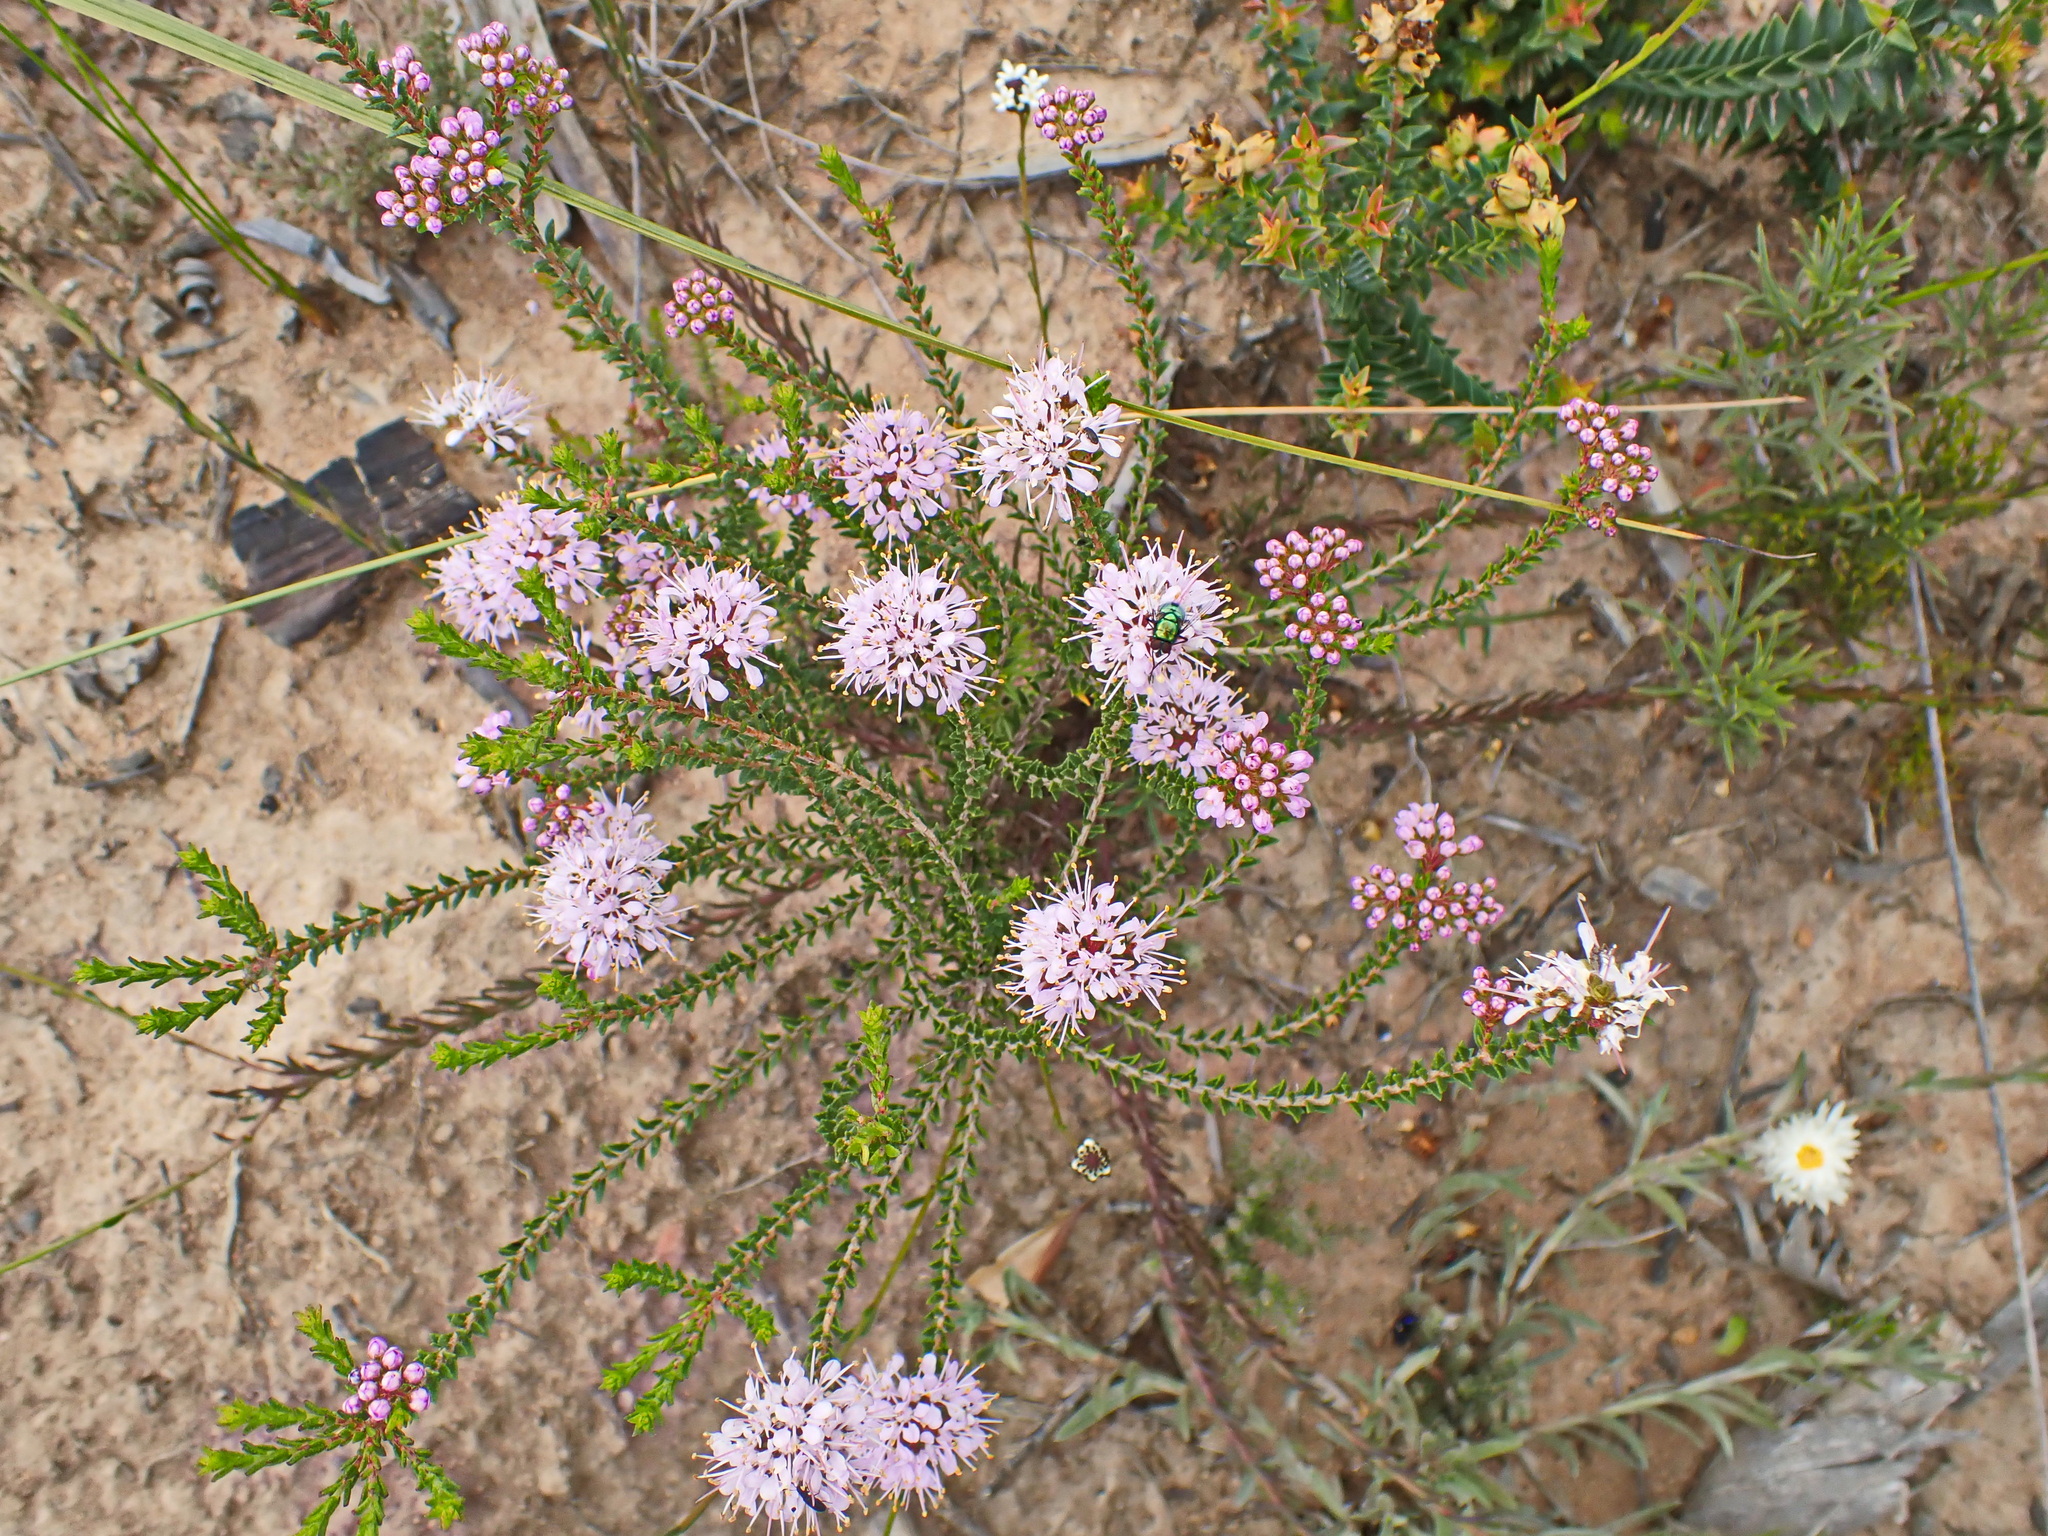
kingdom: Plantae
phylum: Tracheophyta
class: Magnoliopsida
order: Sapindales
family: Rutaceae
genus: Agathosma
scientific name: Agathosma capensis
